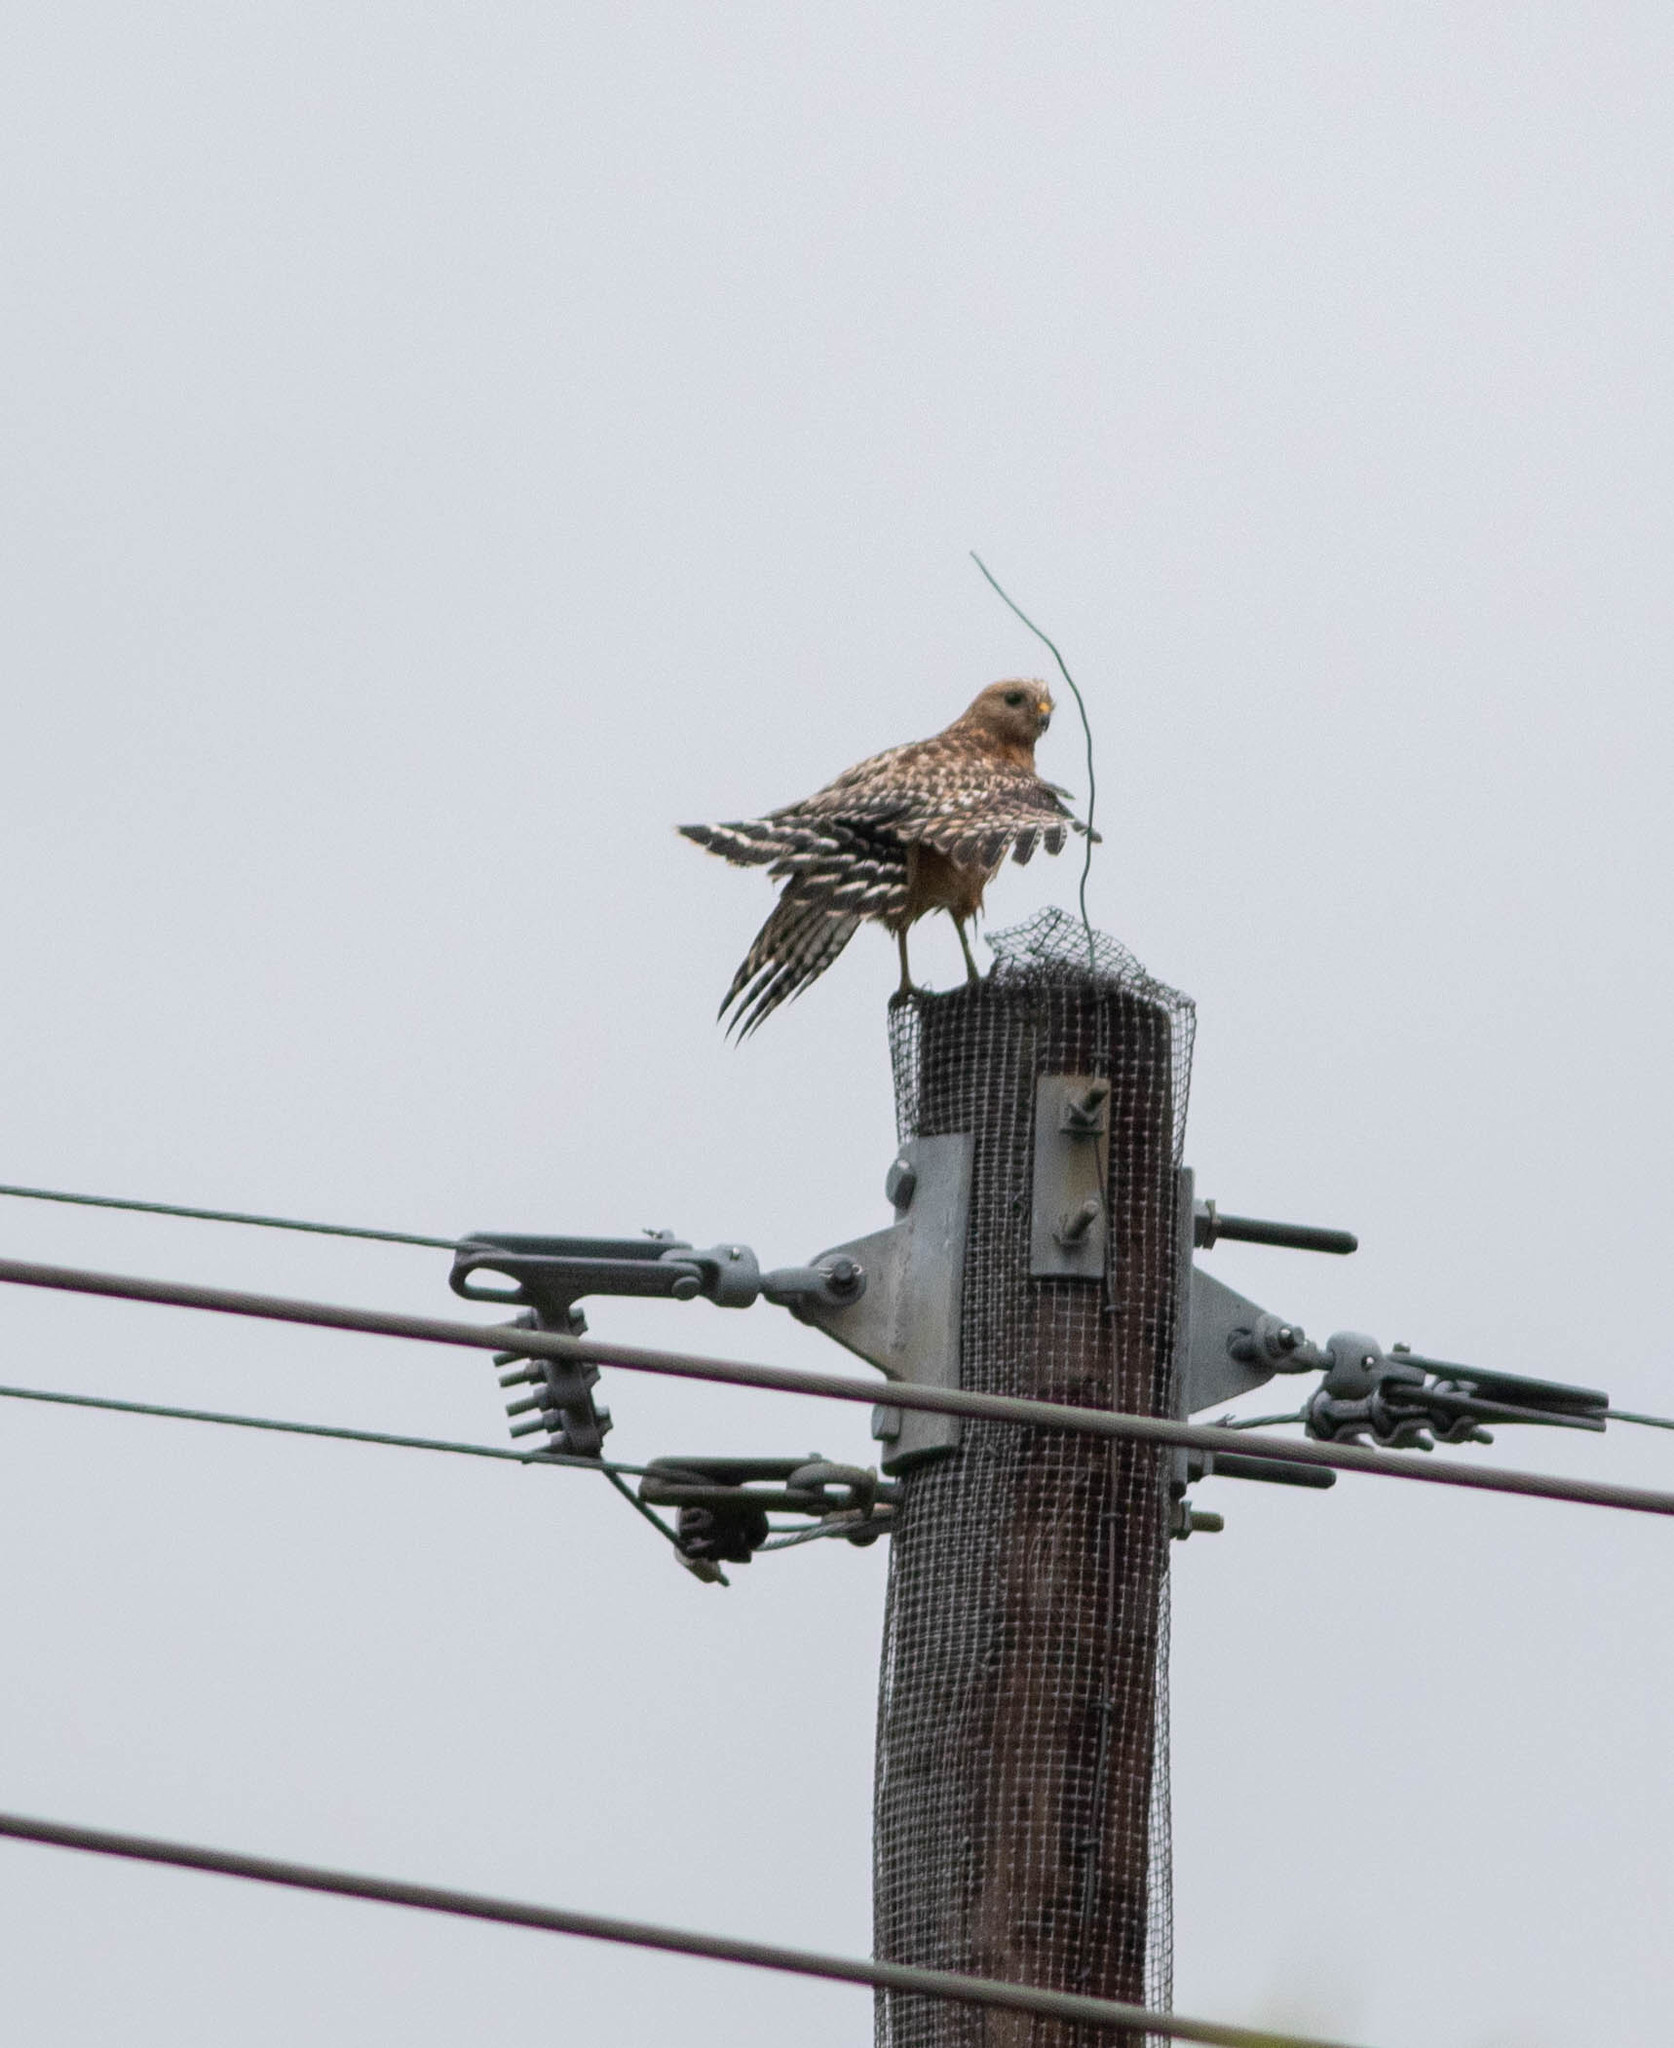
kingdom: Animalia
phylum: Chordata
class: Aves
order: Accipitriformes
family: Accipitridae
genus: Buteo
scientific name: Buteo lineatus
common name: Red-shouldered hawk
